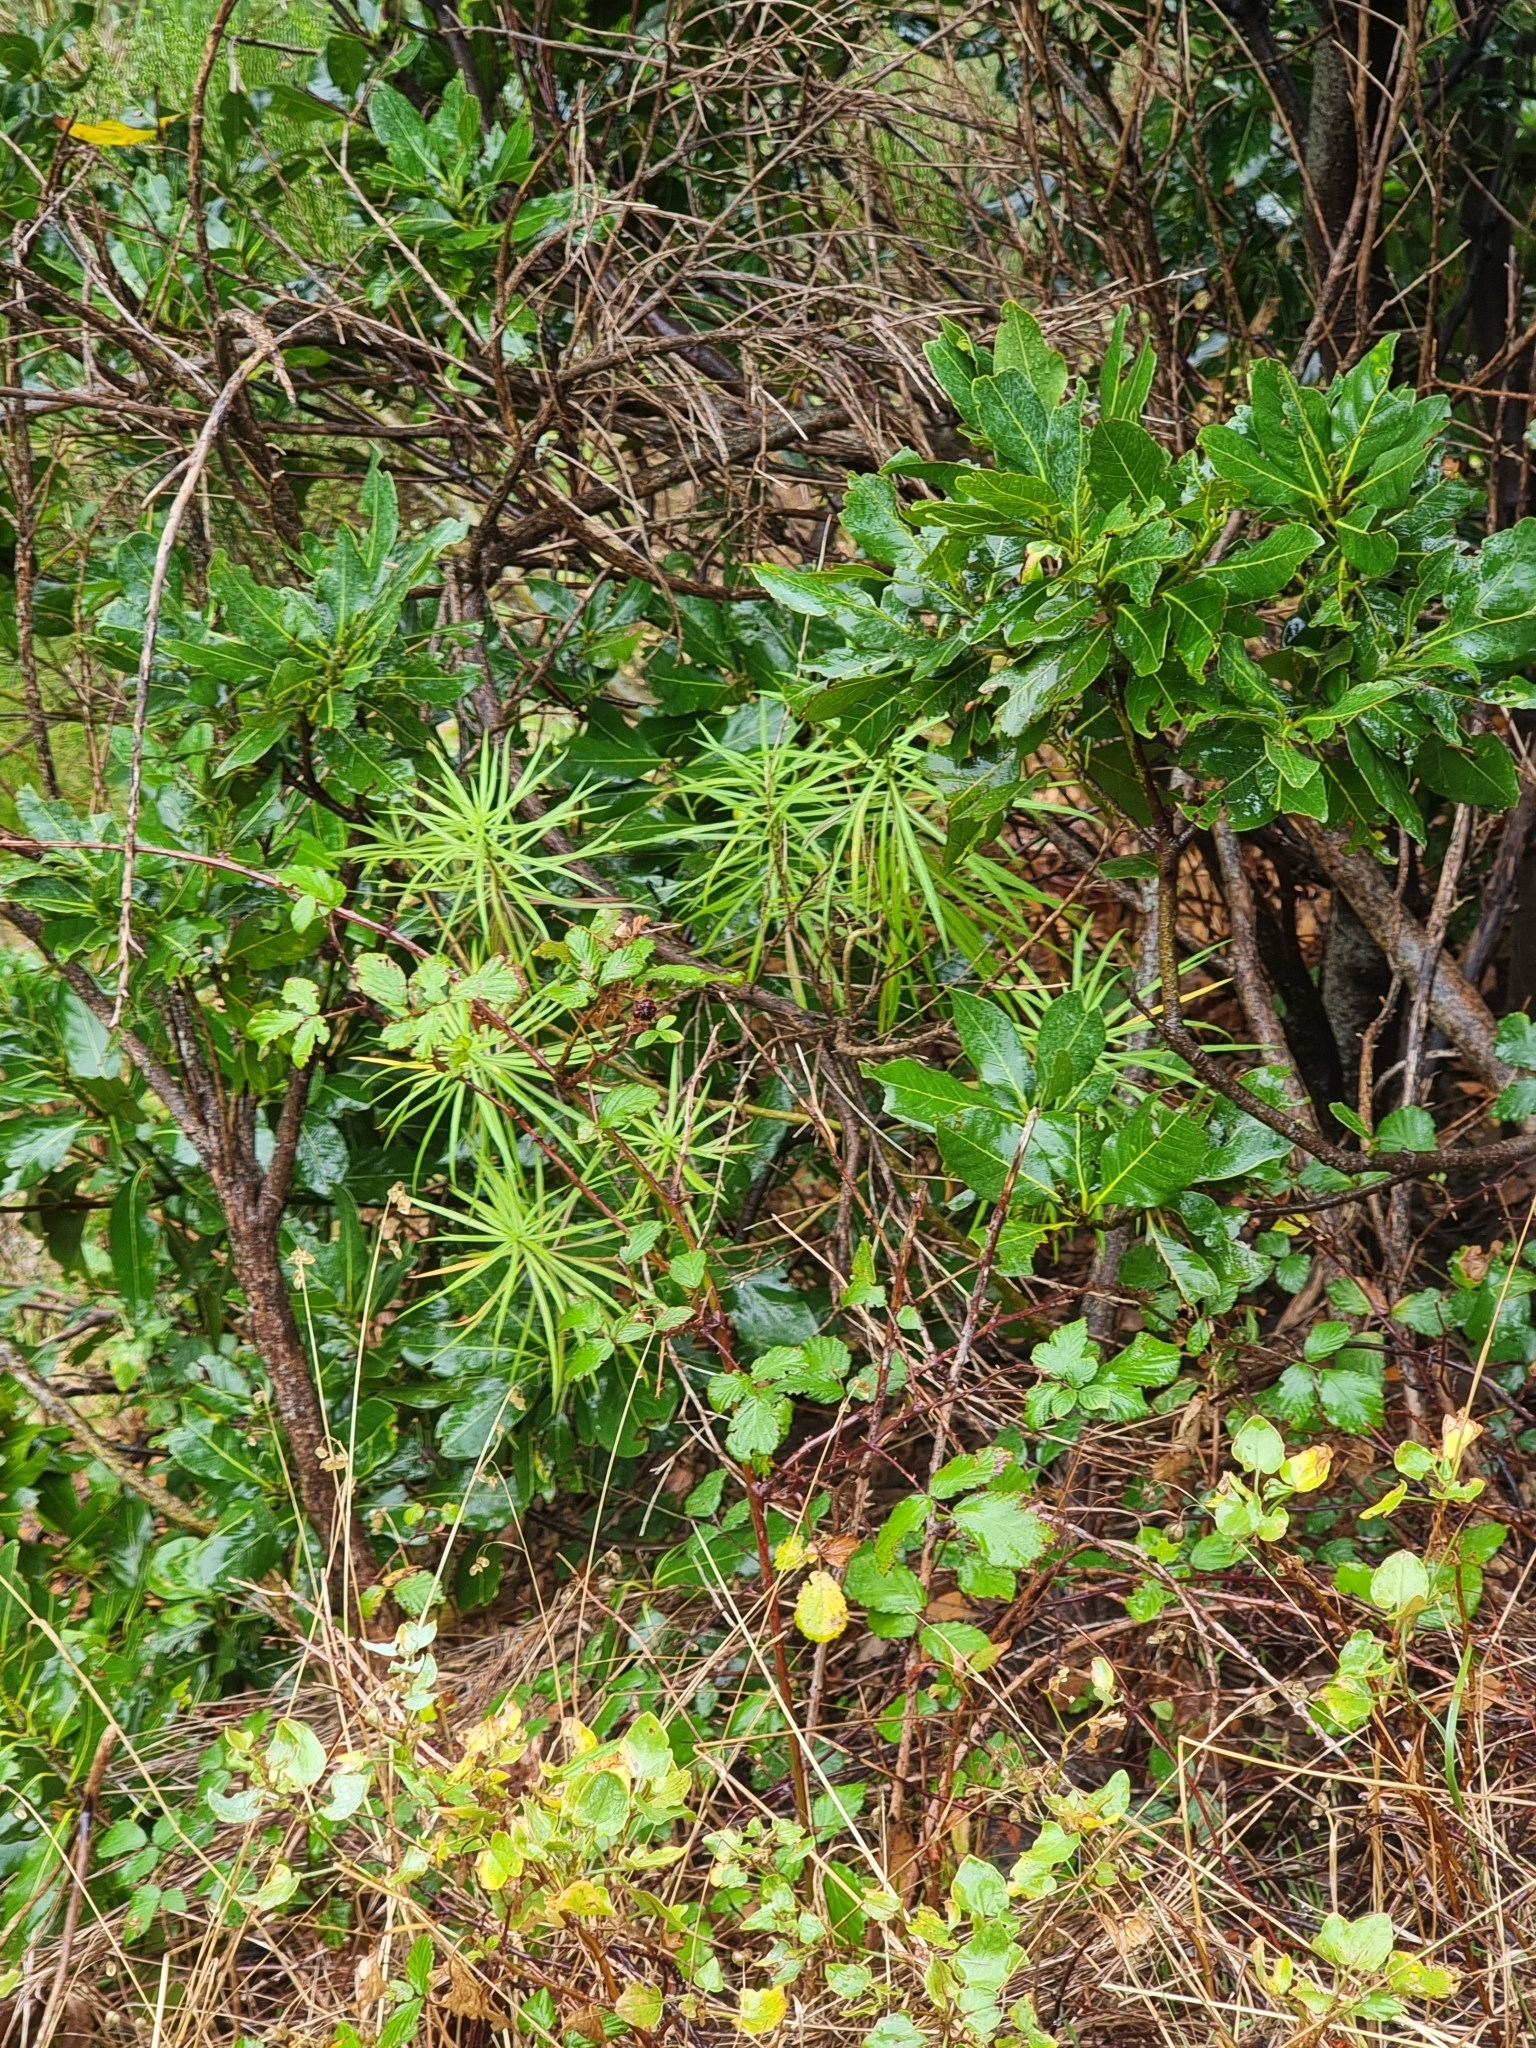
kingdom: Plantae
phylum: Tracheophyta
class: Magnoliopsida
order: Brassicales
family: Brassicaceae
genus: Erysimum
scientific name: Erysimum bicolor
